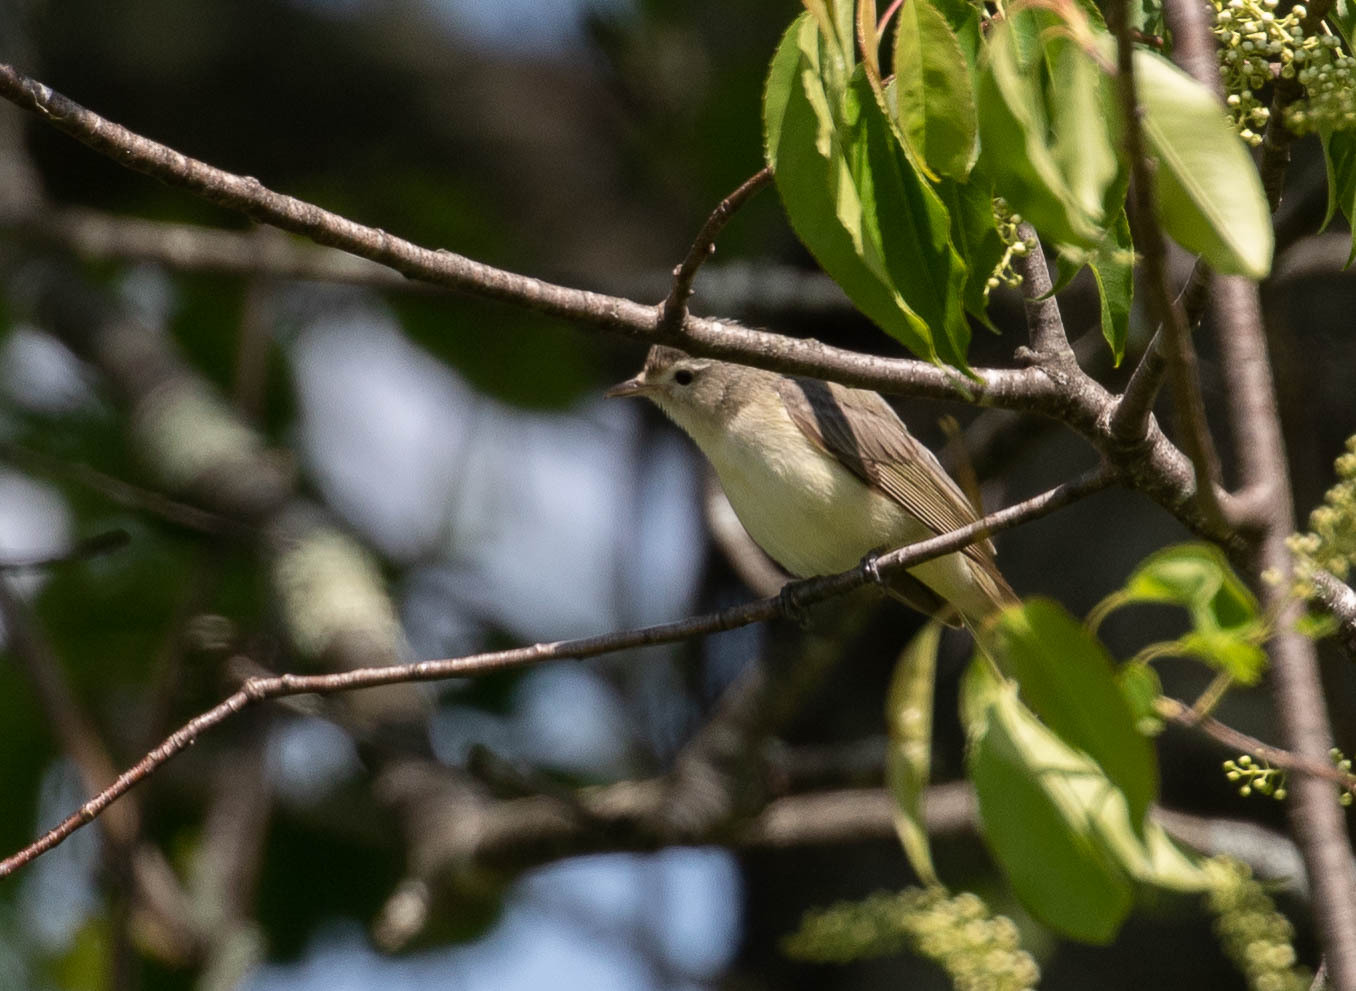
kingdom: Animalia
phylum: Chordata
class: Aves
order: Passeriformes
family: Vireonidae
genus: Vireo
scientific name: Vireo gilvus
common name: Warbling vireo
